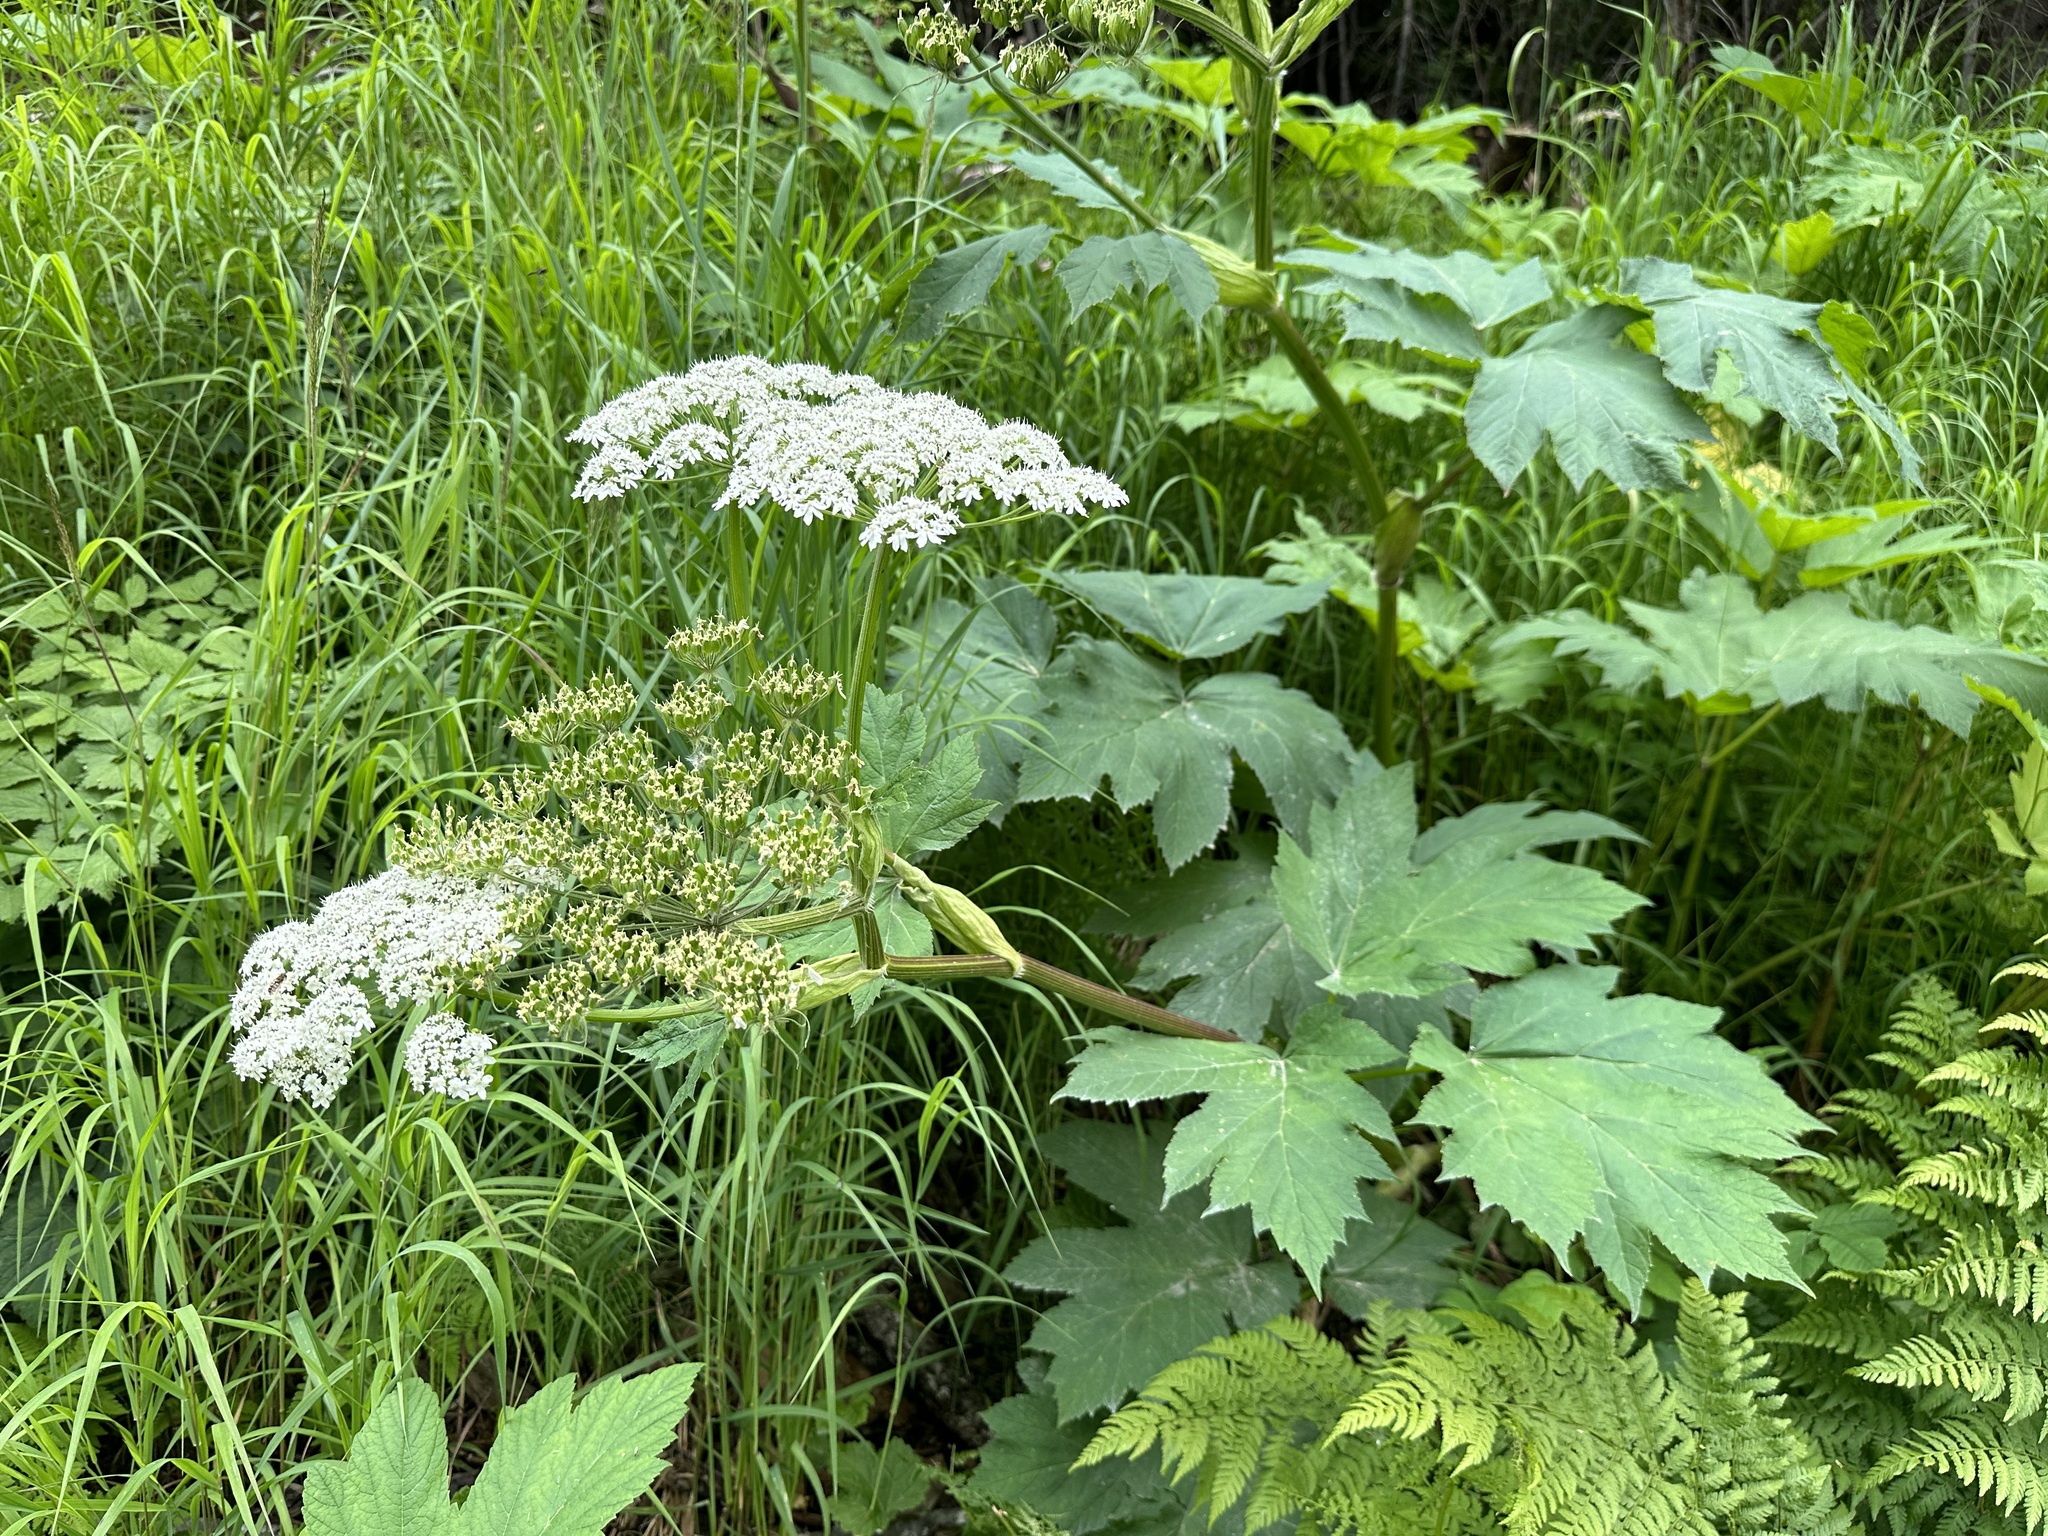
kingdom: Plantae
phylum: Tracheophyta
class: Magnoliopsida
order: Apiales
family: Apiaceae
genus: Heracleum
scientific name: Heracleum maximum
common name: American cow parsnip
